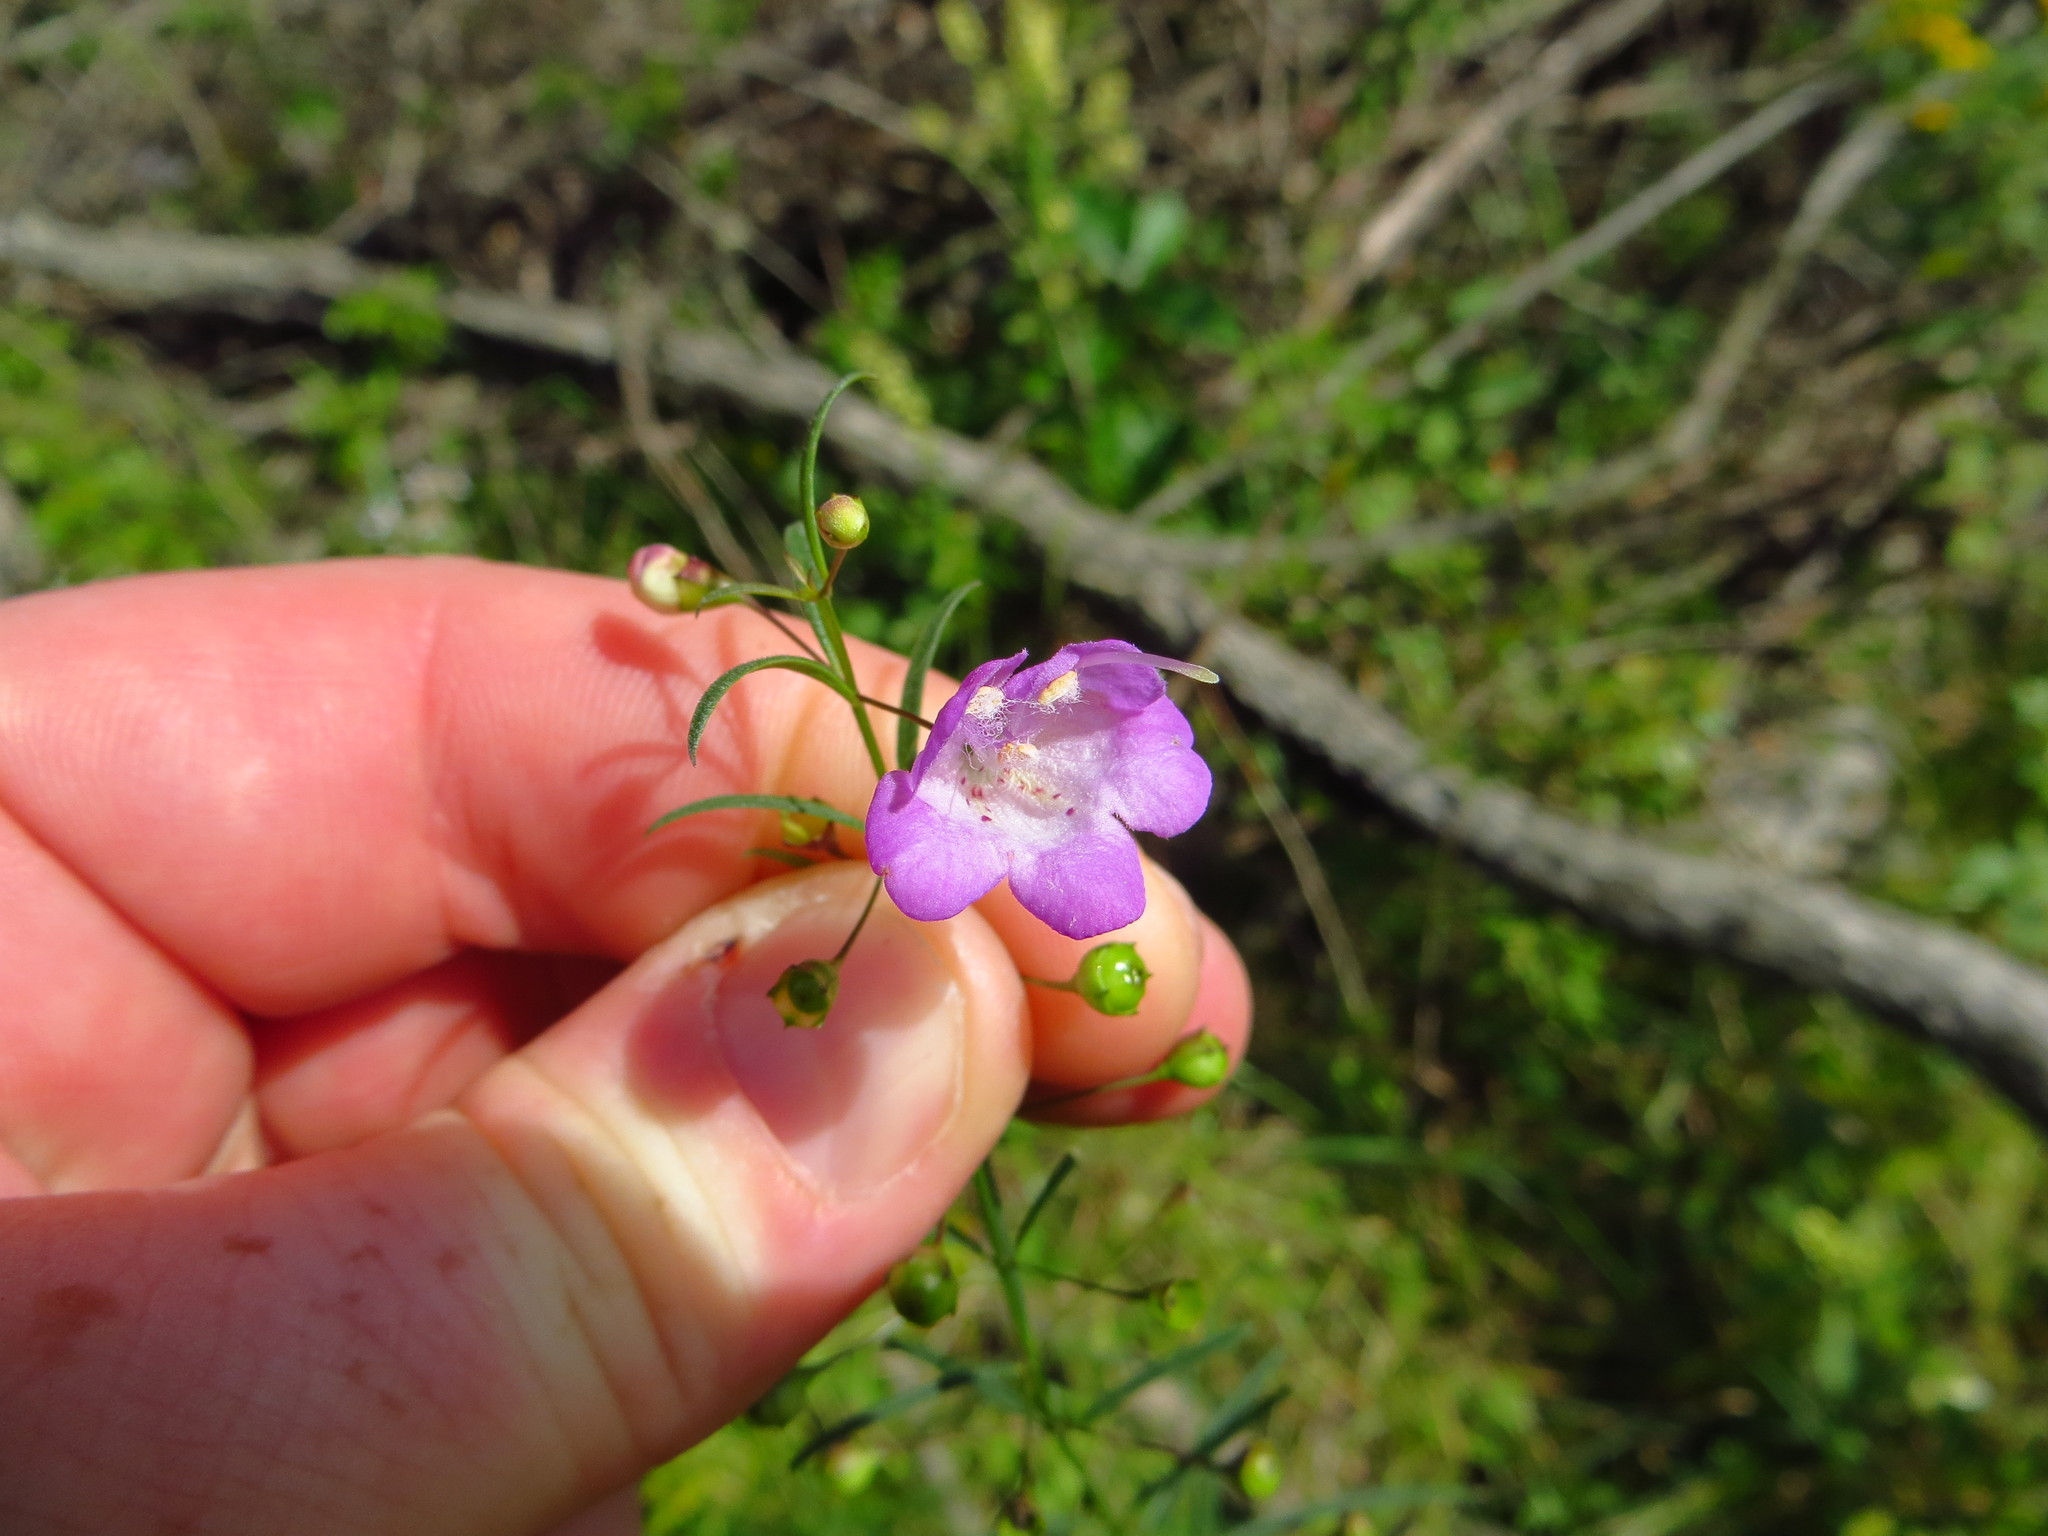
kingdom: Plantae
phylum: Tracheophyta
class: Magnoliopsida
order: Lamiales
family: Orobanchaceae
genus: Agalinis
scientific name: Agalinis tenuifolia
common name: Slender agalinis
